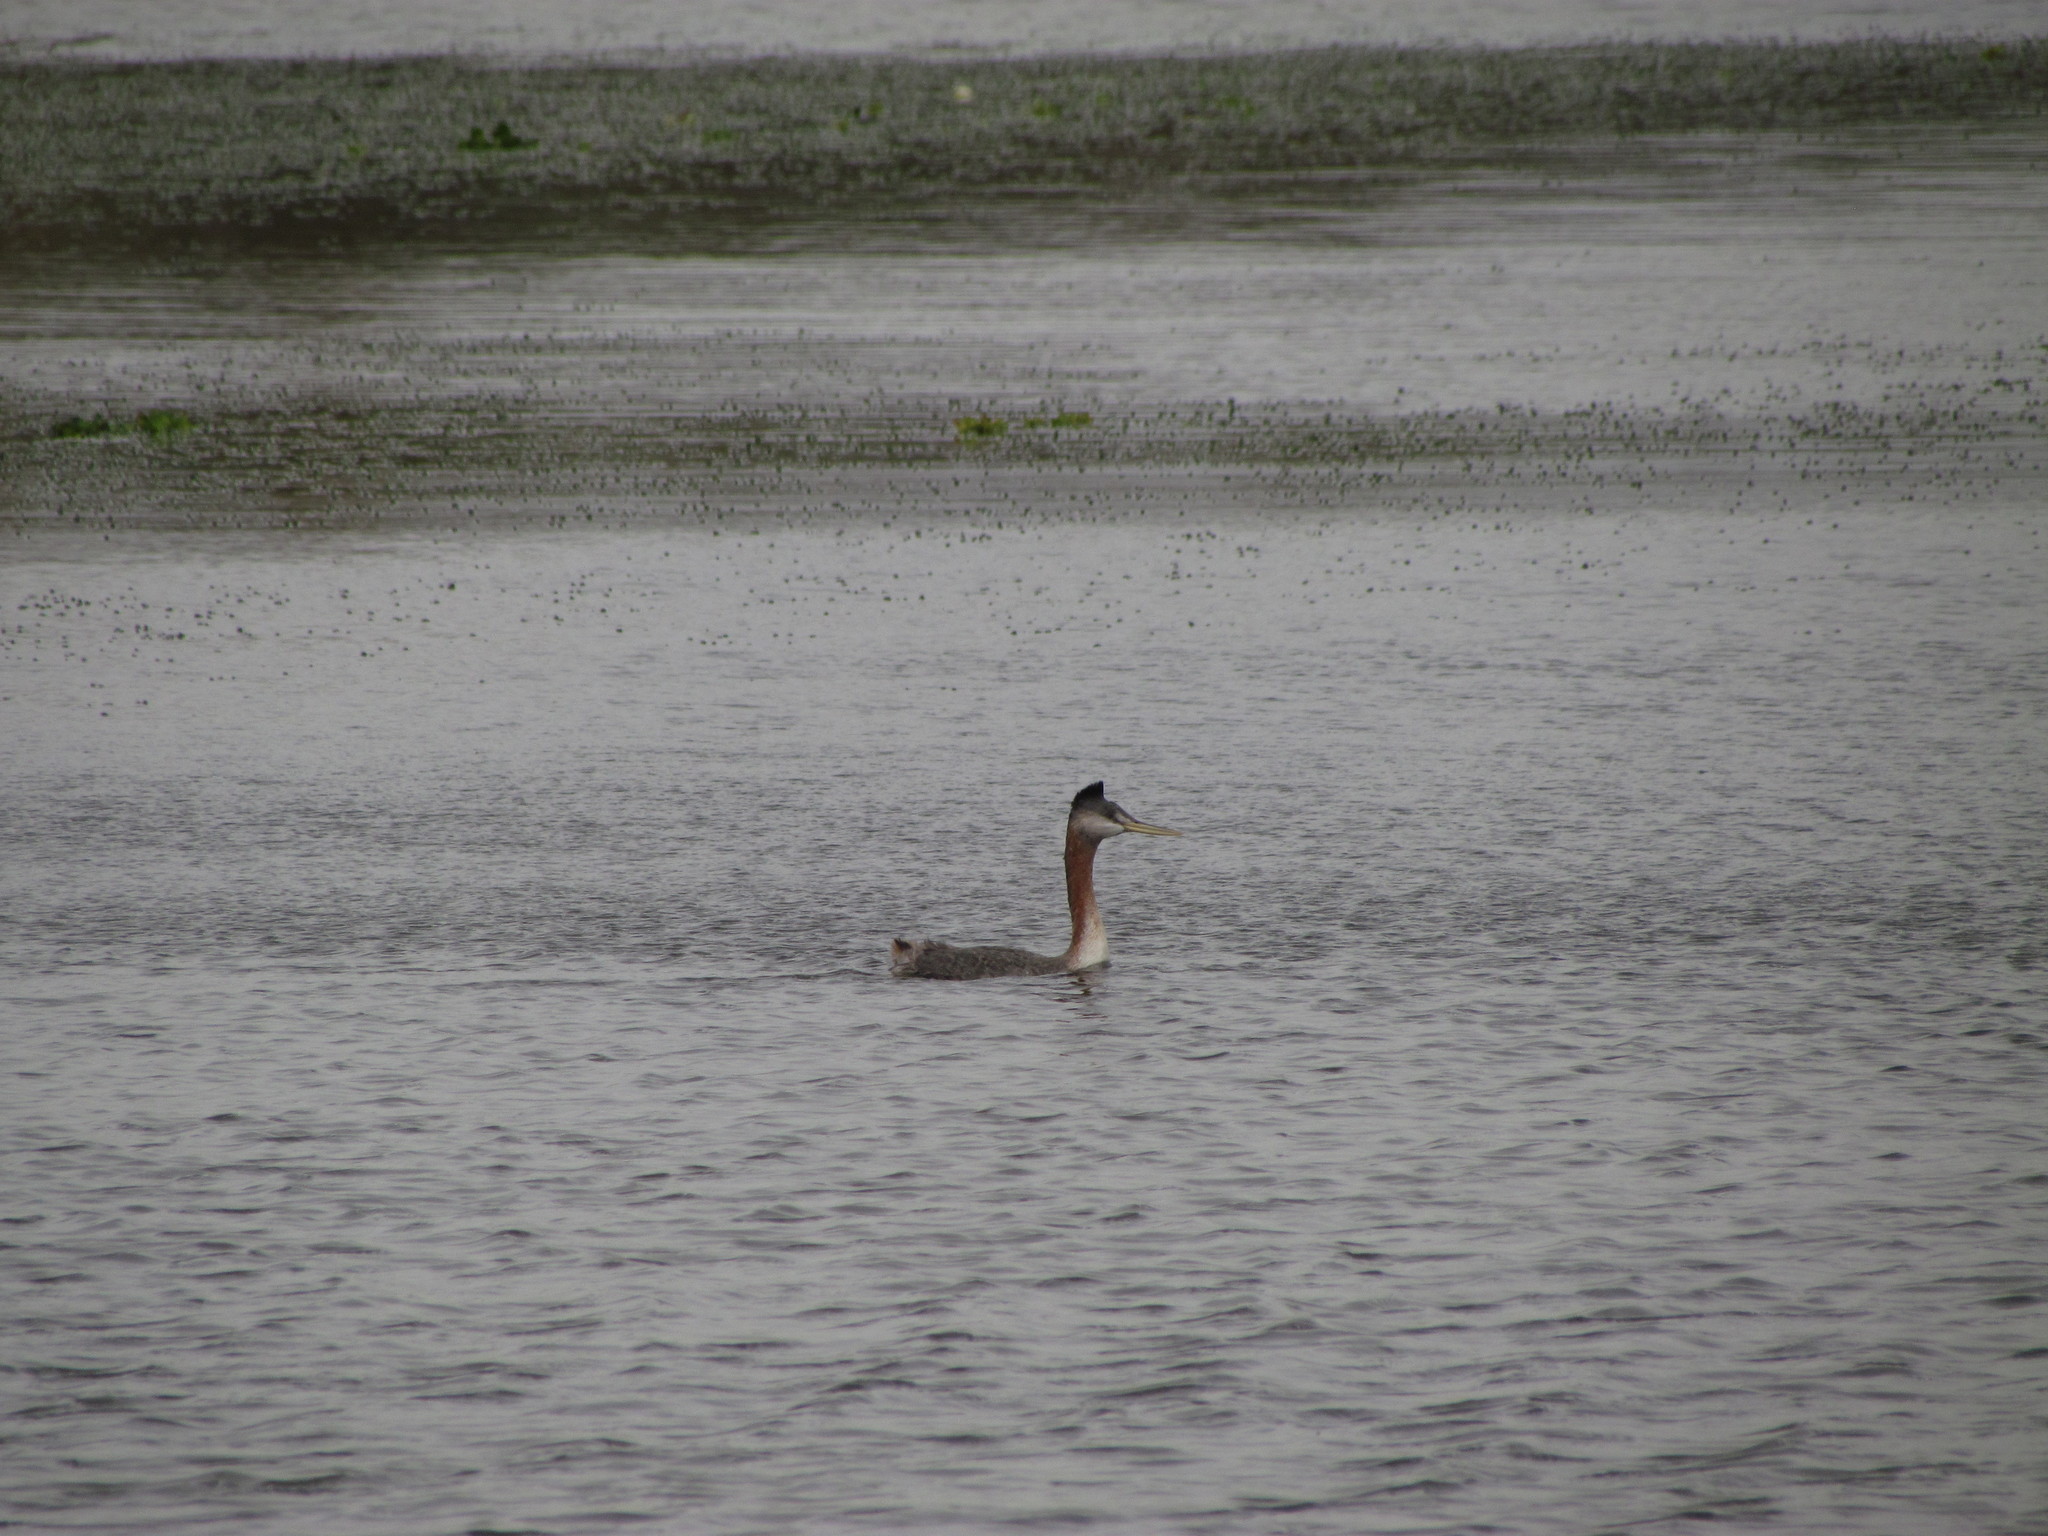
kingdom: Animalia
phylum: Chordata
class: Aves
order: Podicipediformes
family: Podicipedidae
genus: Podiceps
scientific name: Podiceps major
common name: Great grebe
